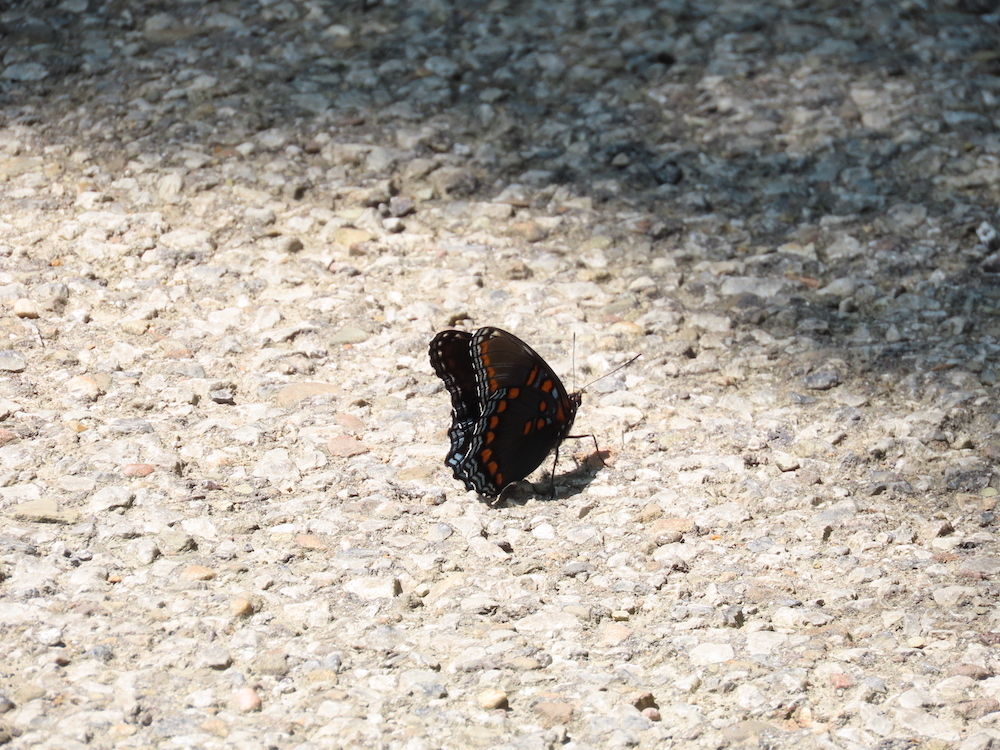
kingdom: Animalia
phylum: Arthropoda
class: Insecta
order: Lepidoptera
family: Nymphalidae
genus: Limenitis
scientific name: Limenitis arthemis
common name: Red-spotted admiral
